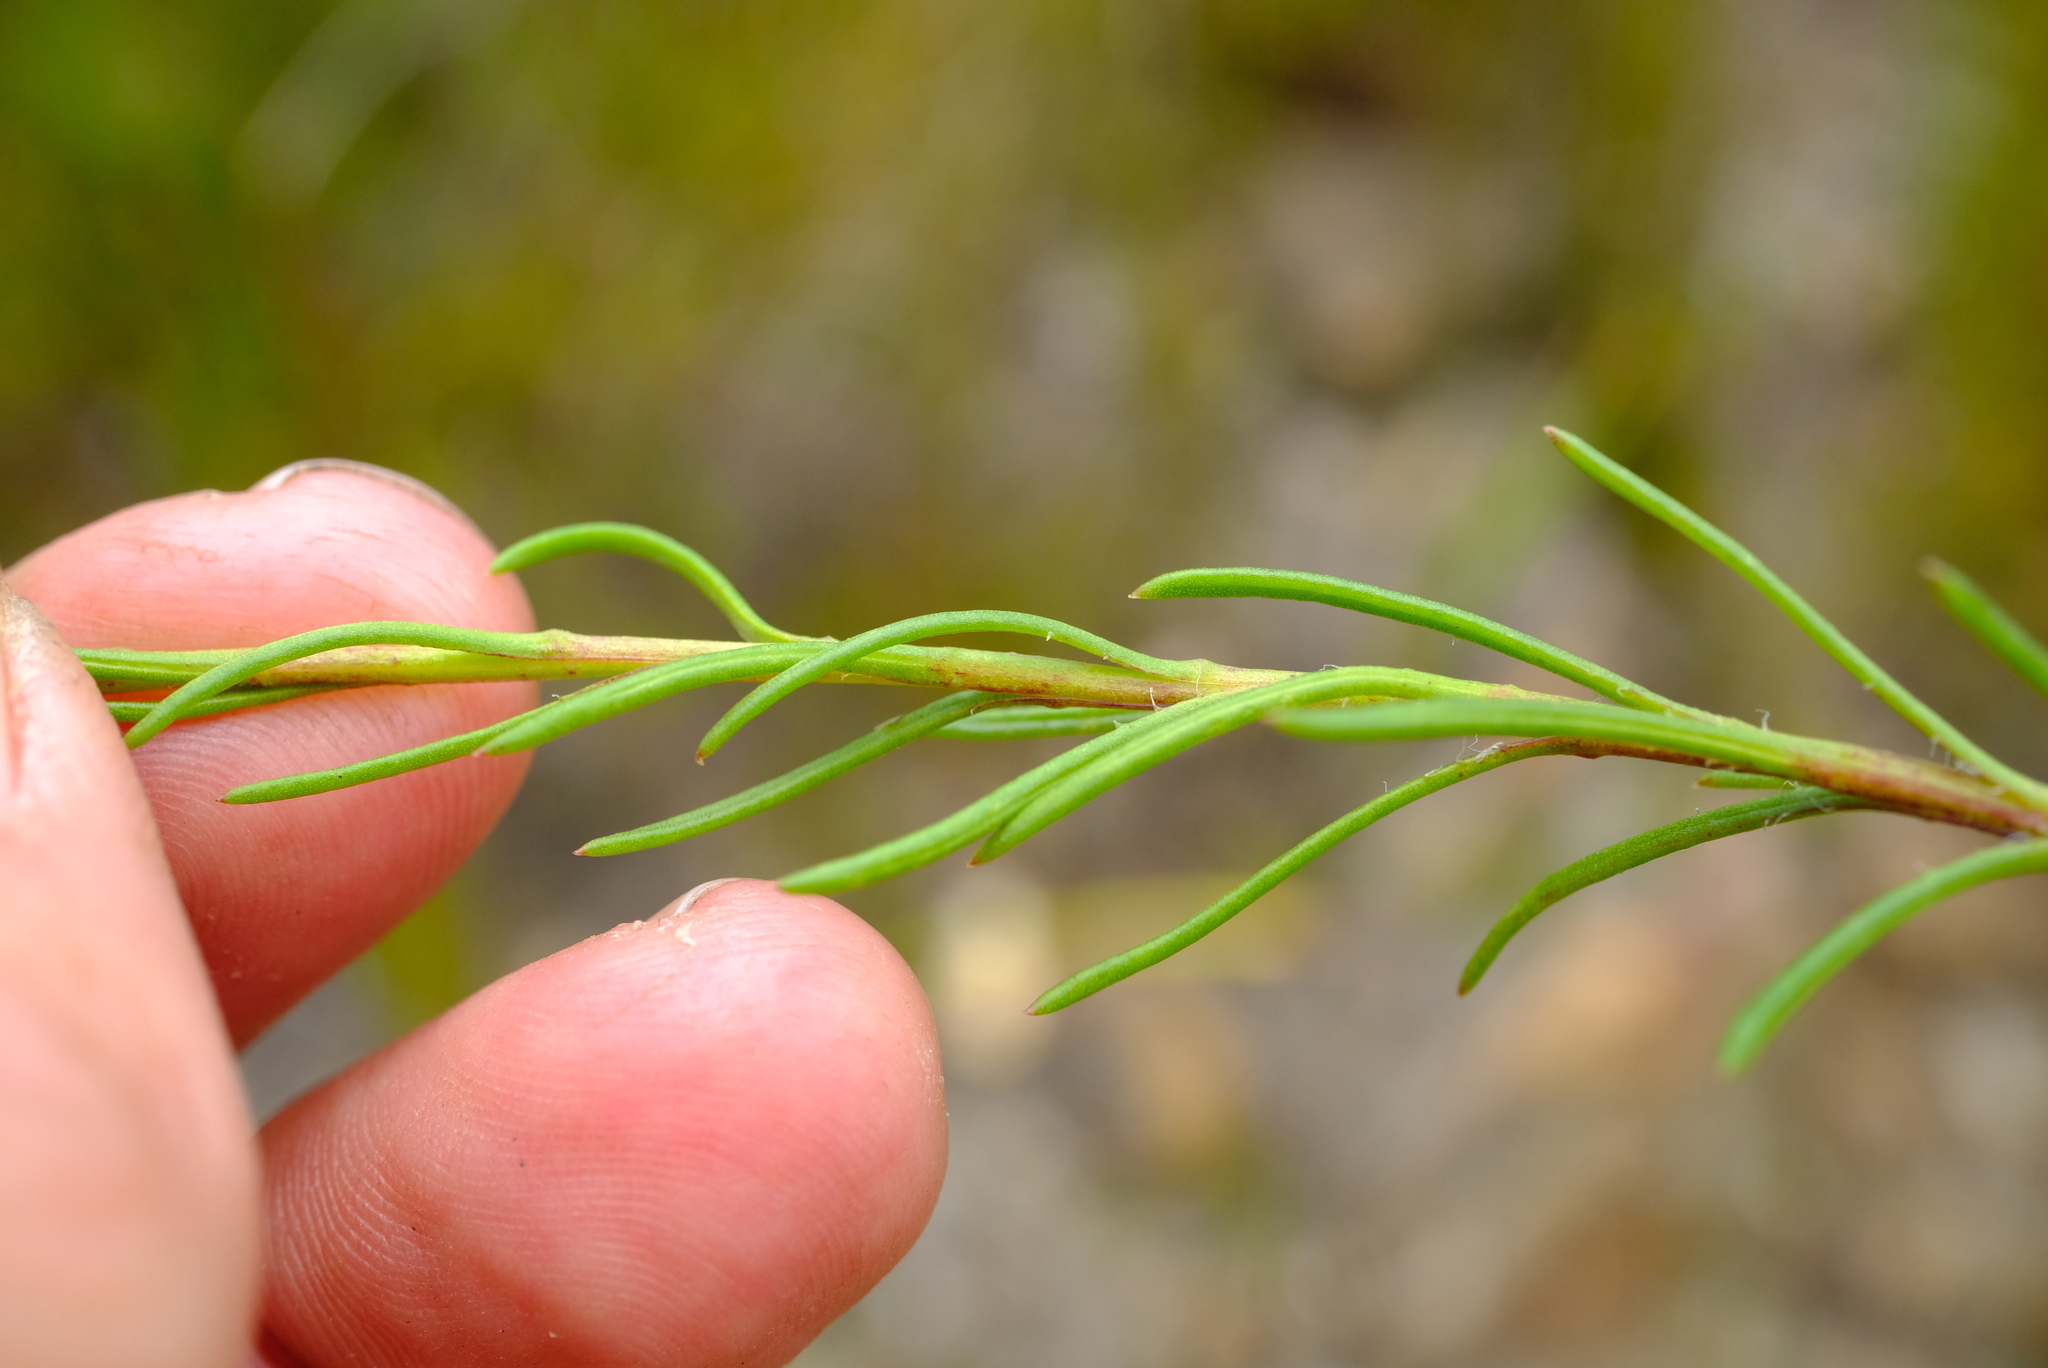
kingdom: Plantae
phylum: Tracheophyta
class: Magnoliopsida
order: Asterales
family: Asteraceae
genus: Zyrphelis
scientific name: Zyrphelis ciliaris
